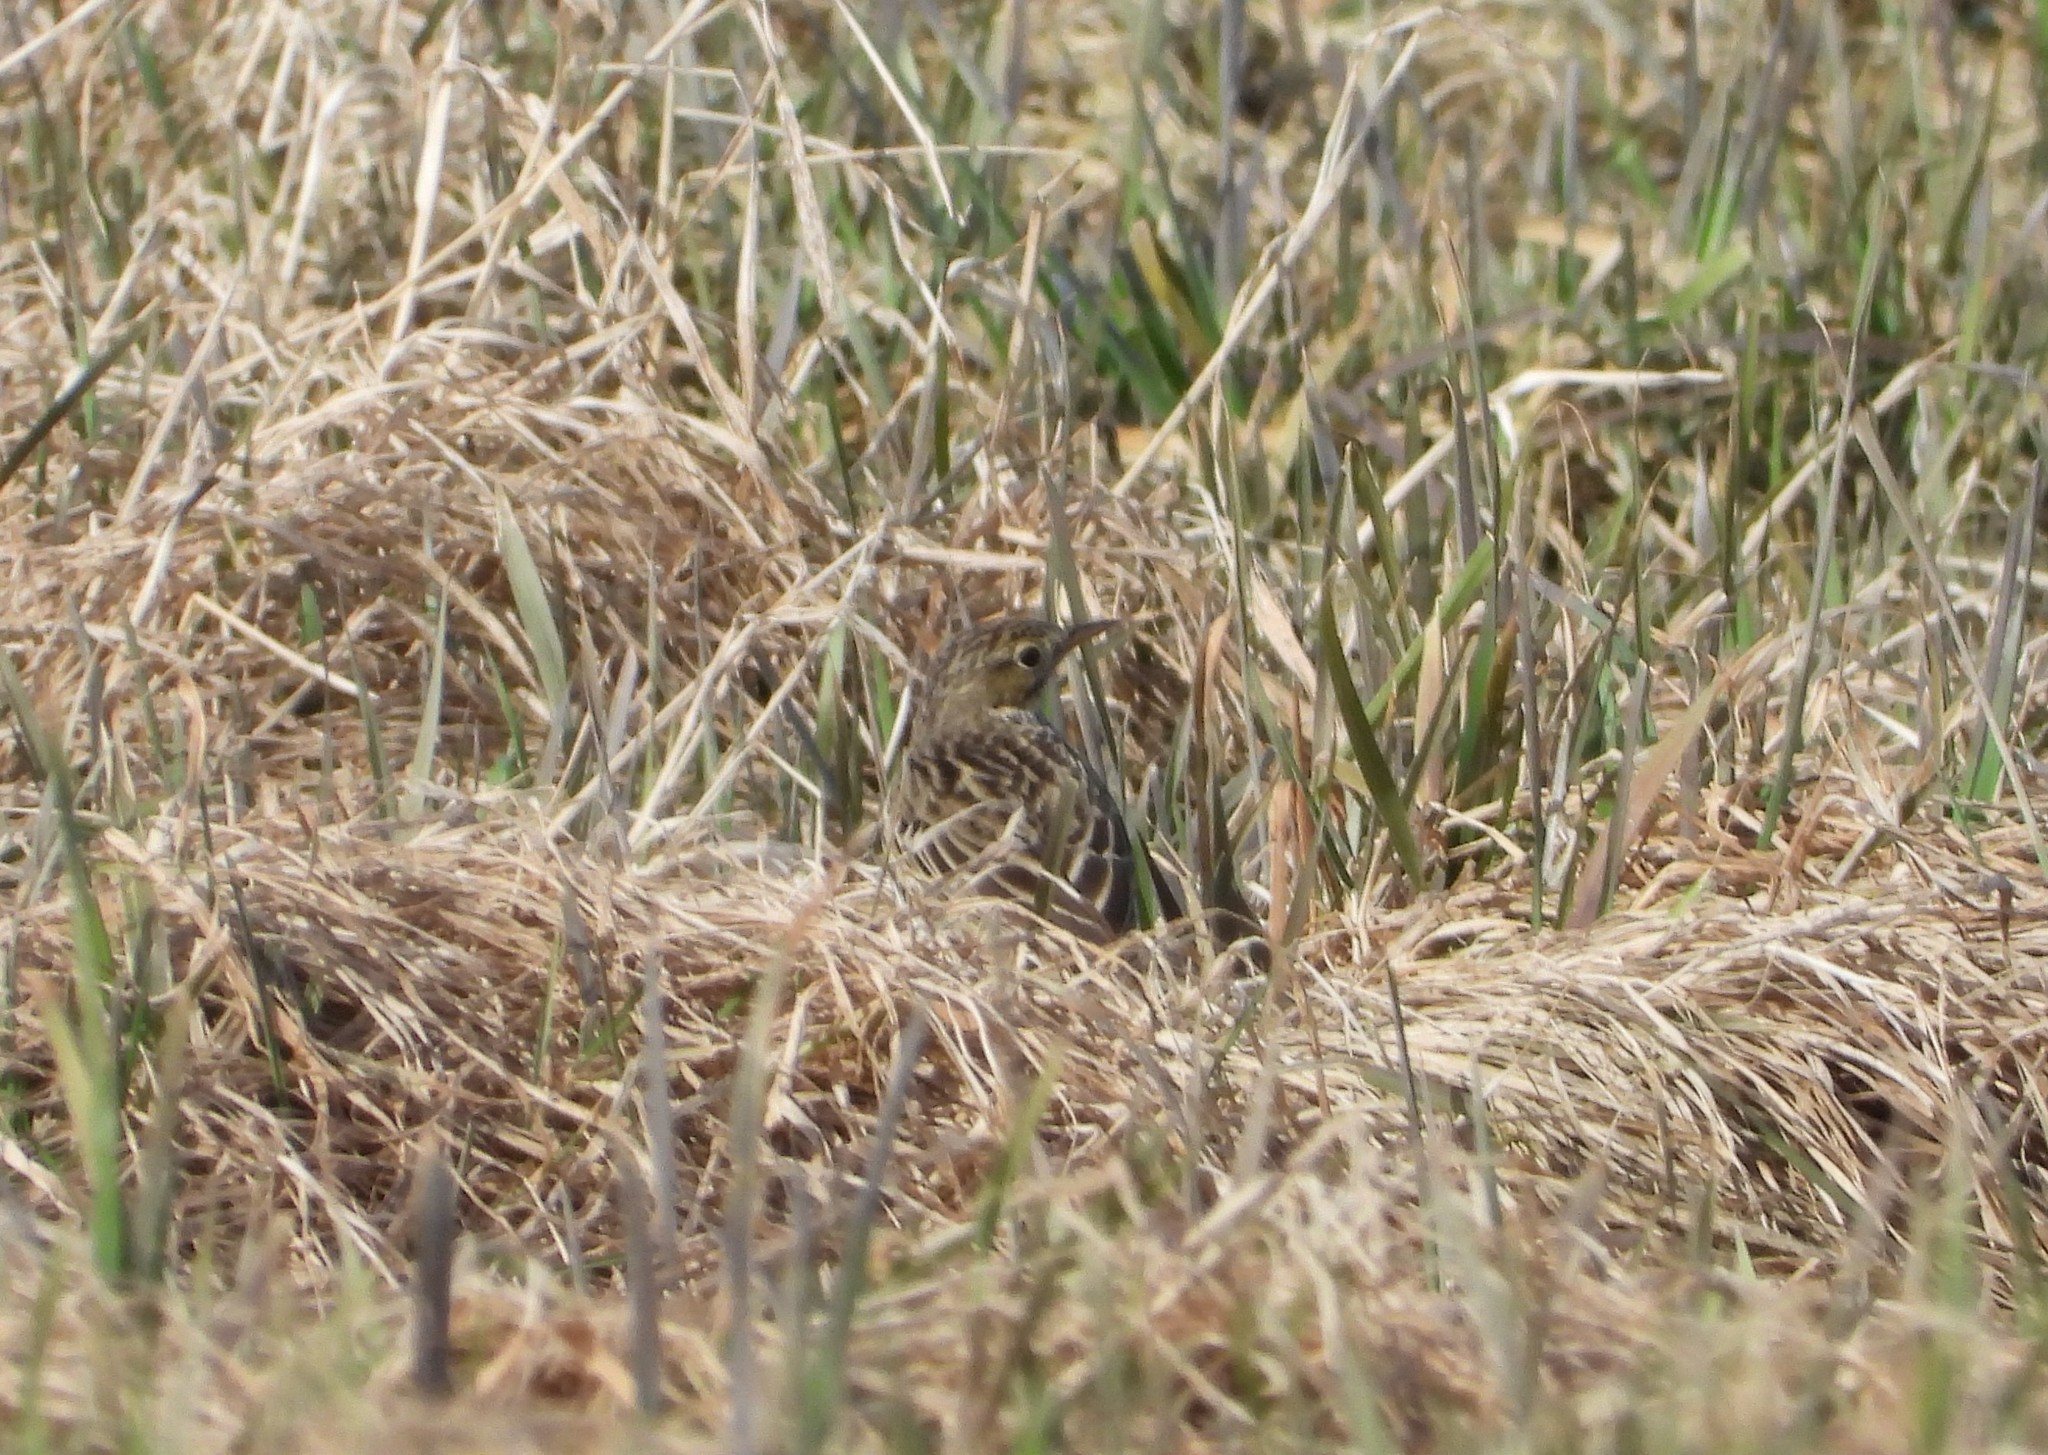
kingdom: Animalia
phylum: Chordata
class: Aves
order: Passeriformes
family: Motacillidae
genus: Anthus
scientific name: Anthus pratensis
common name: Meadow pipit
